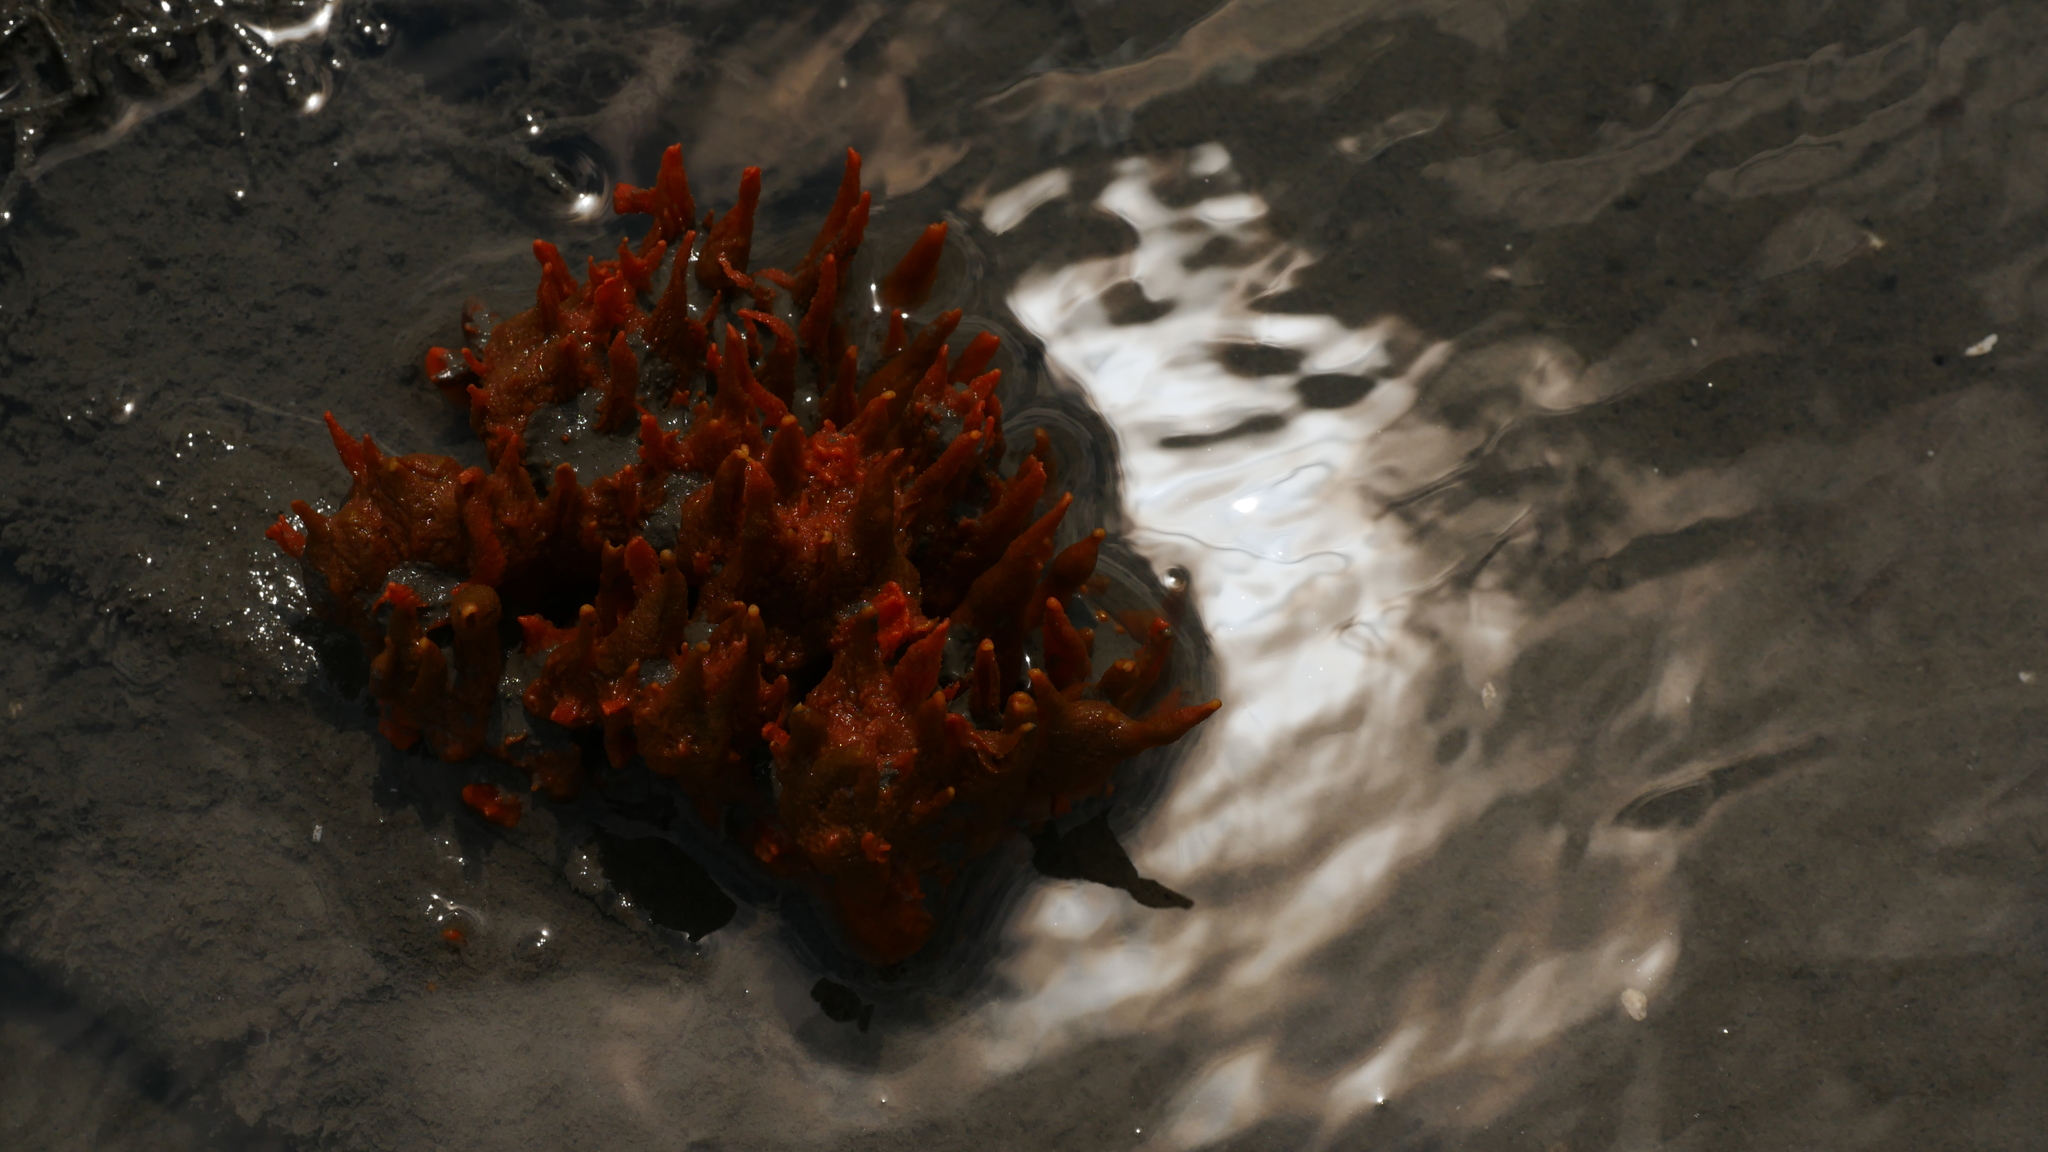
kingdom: Animalia
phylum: Porifera
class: Demospongiae
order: Suberitida
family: Halichondriidae
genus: Hymeniacidon
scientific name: Hymeniacidon heliophila
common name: Diurnal horny sponge
